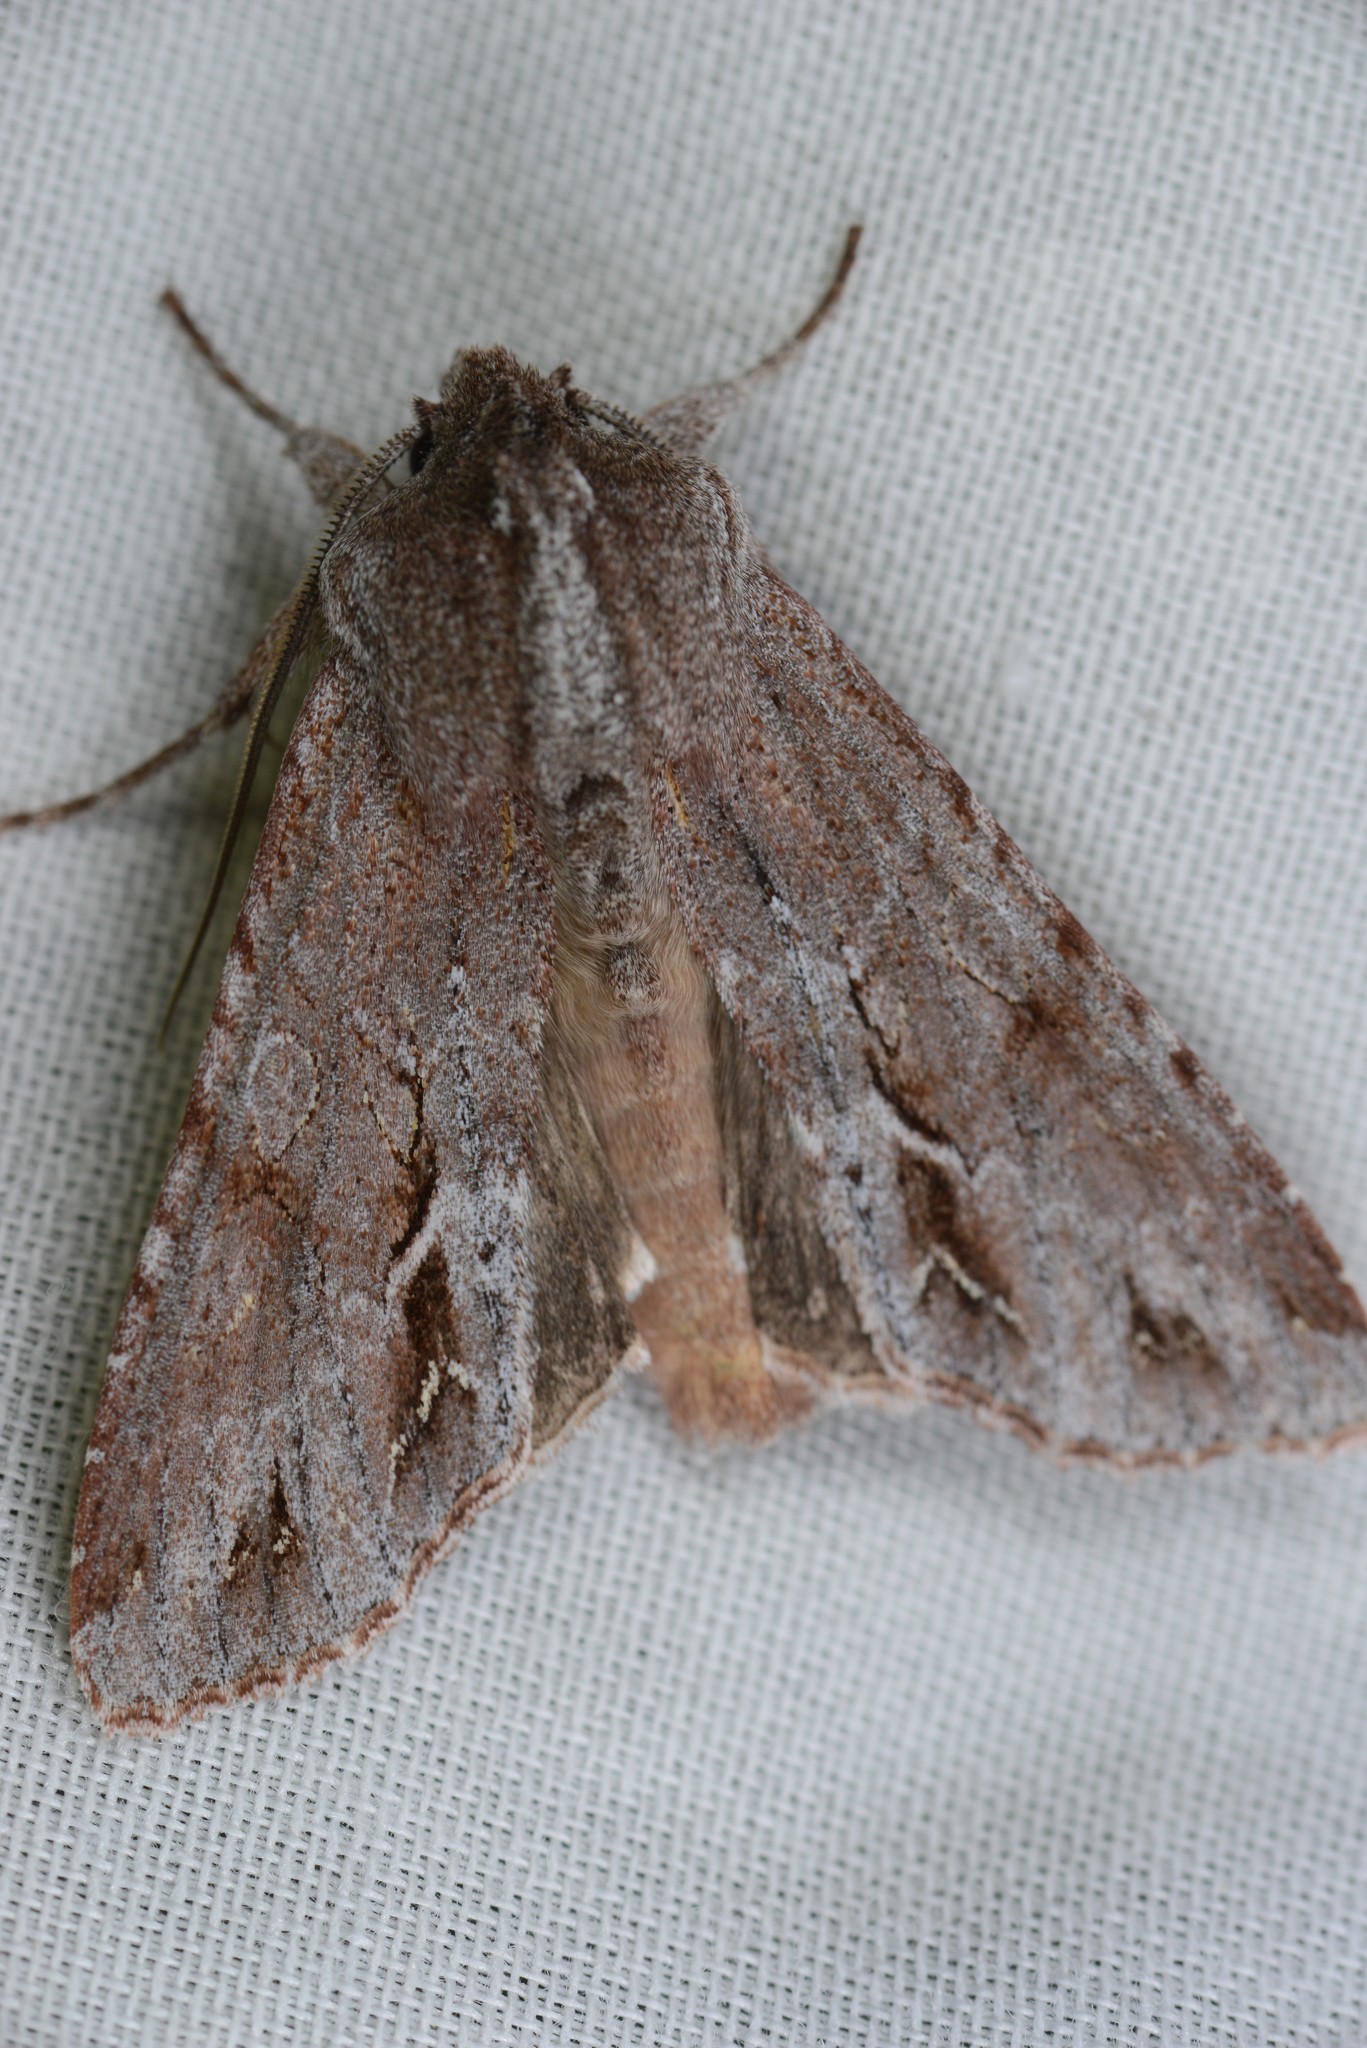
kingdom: Animalia
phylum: Arthropoda
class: Insecta
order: Lepidoptera
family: Noctuidae
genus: Ichneutica
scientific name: Ichneutica
